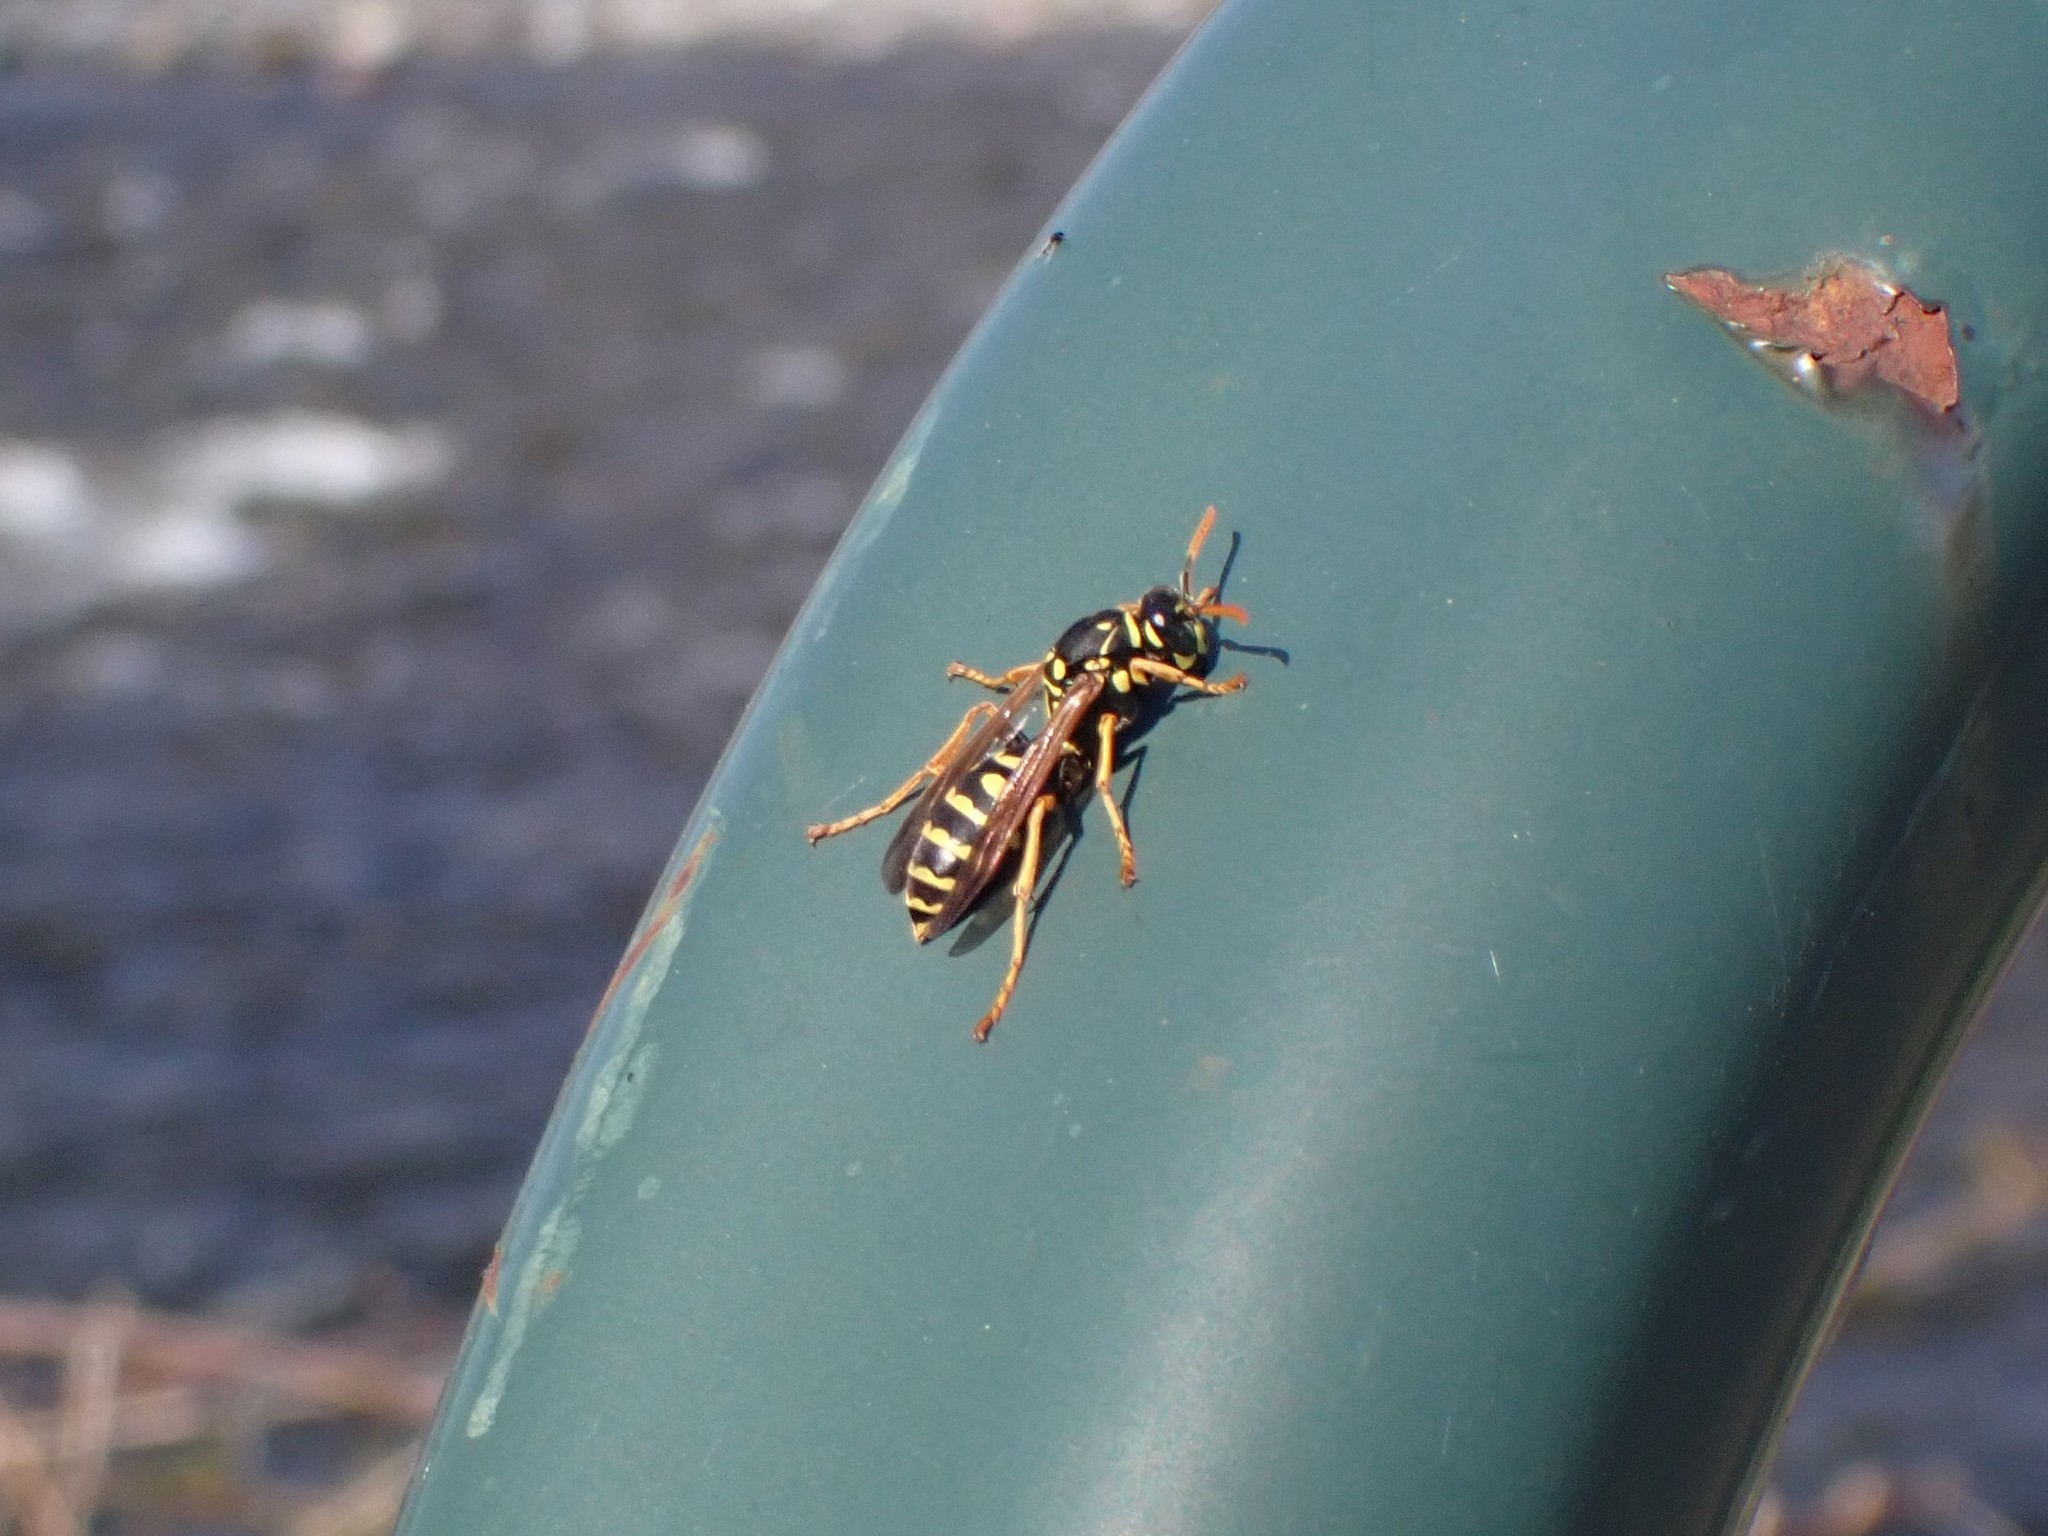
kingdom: Animalia
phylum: Arthropoda
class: Insecta
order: Hymenoptera
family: Eumenidae
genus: Polistes
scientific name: Polistes dominula
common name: Paper wasp
